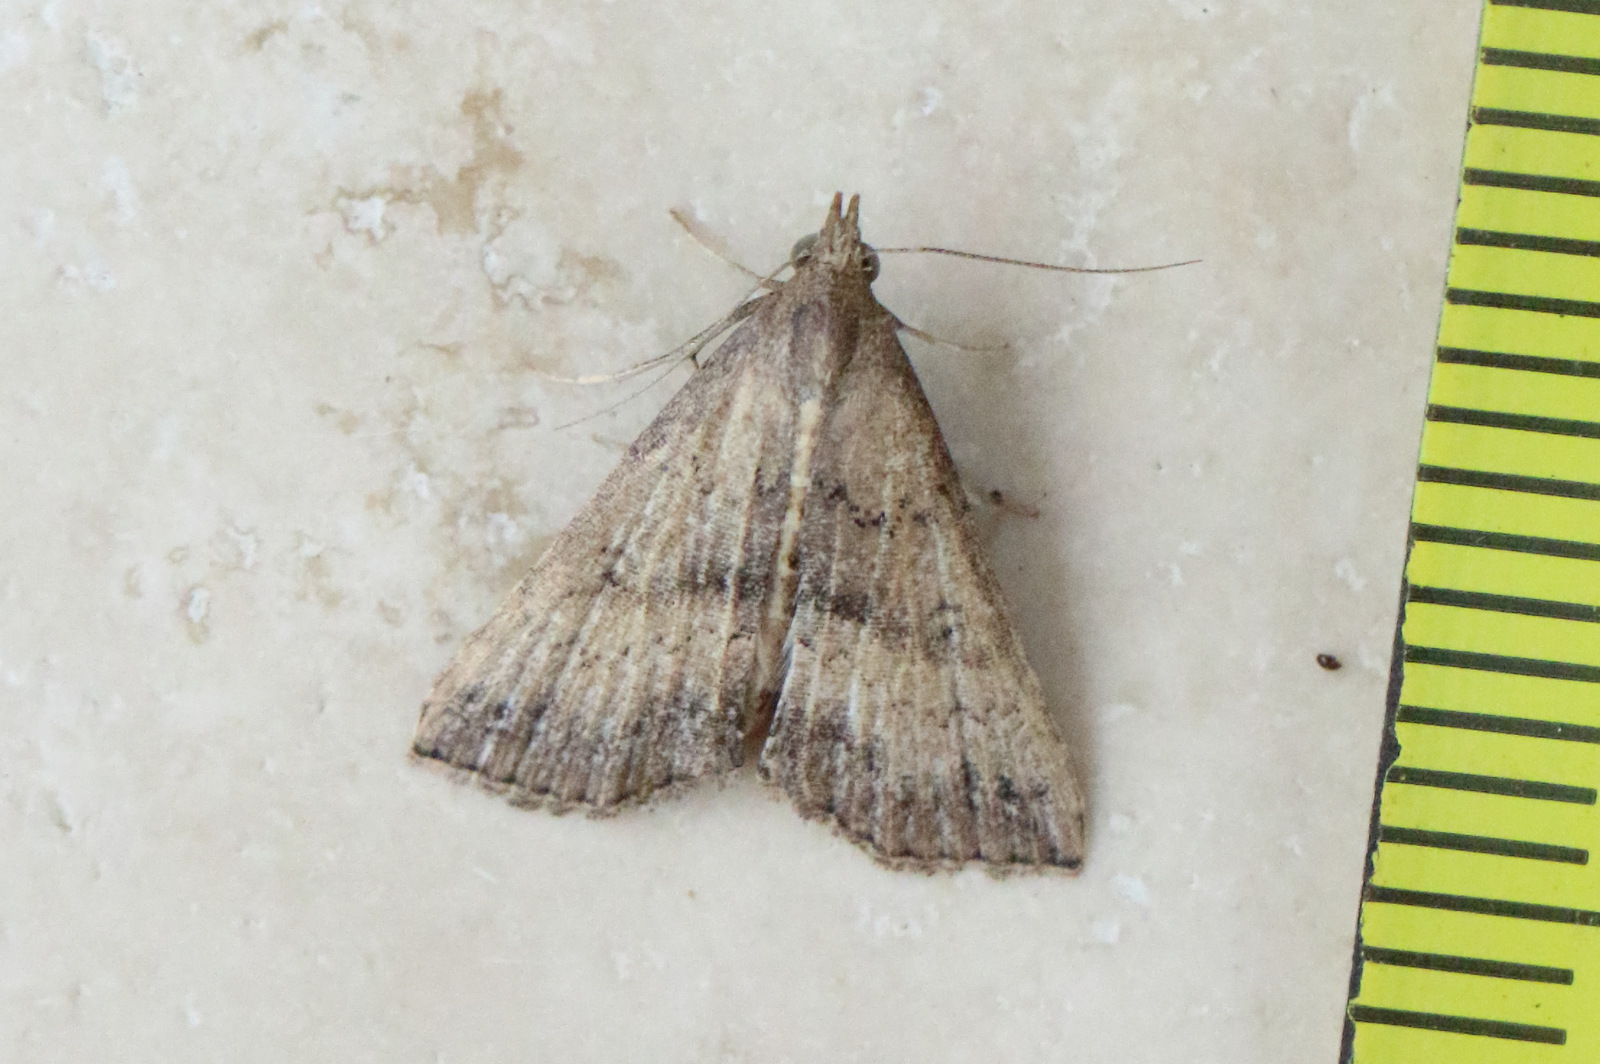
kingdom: Animalia
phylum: Arthropoda
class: Insecta
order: Lepidoptera
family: Erebidae
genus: Hypena
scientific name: Hypena umbrifera
